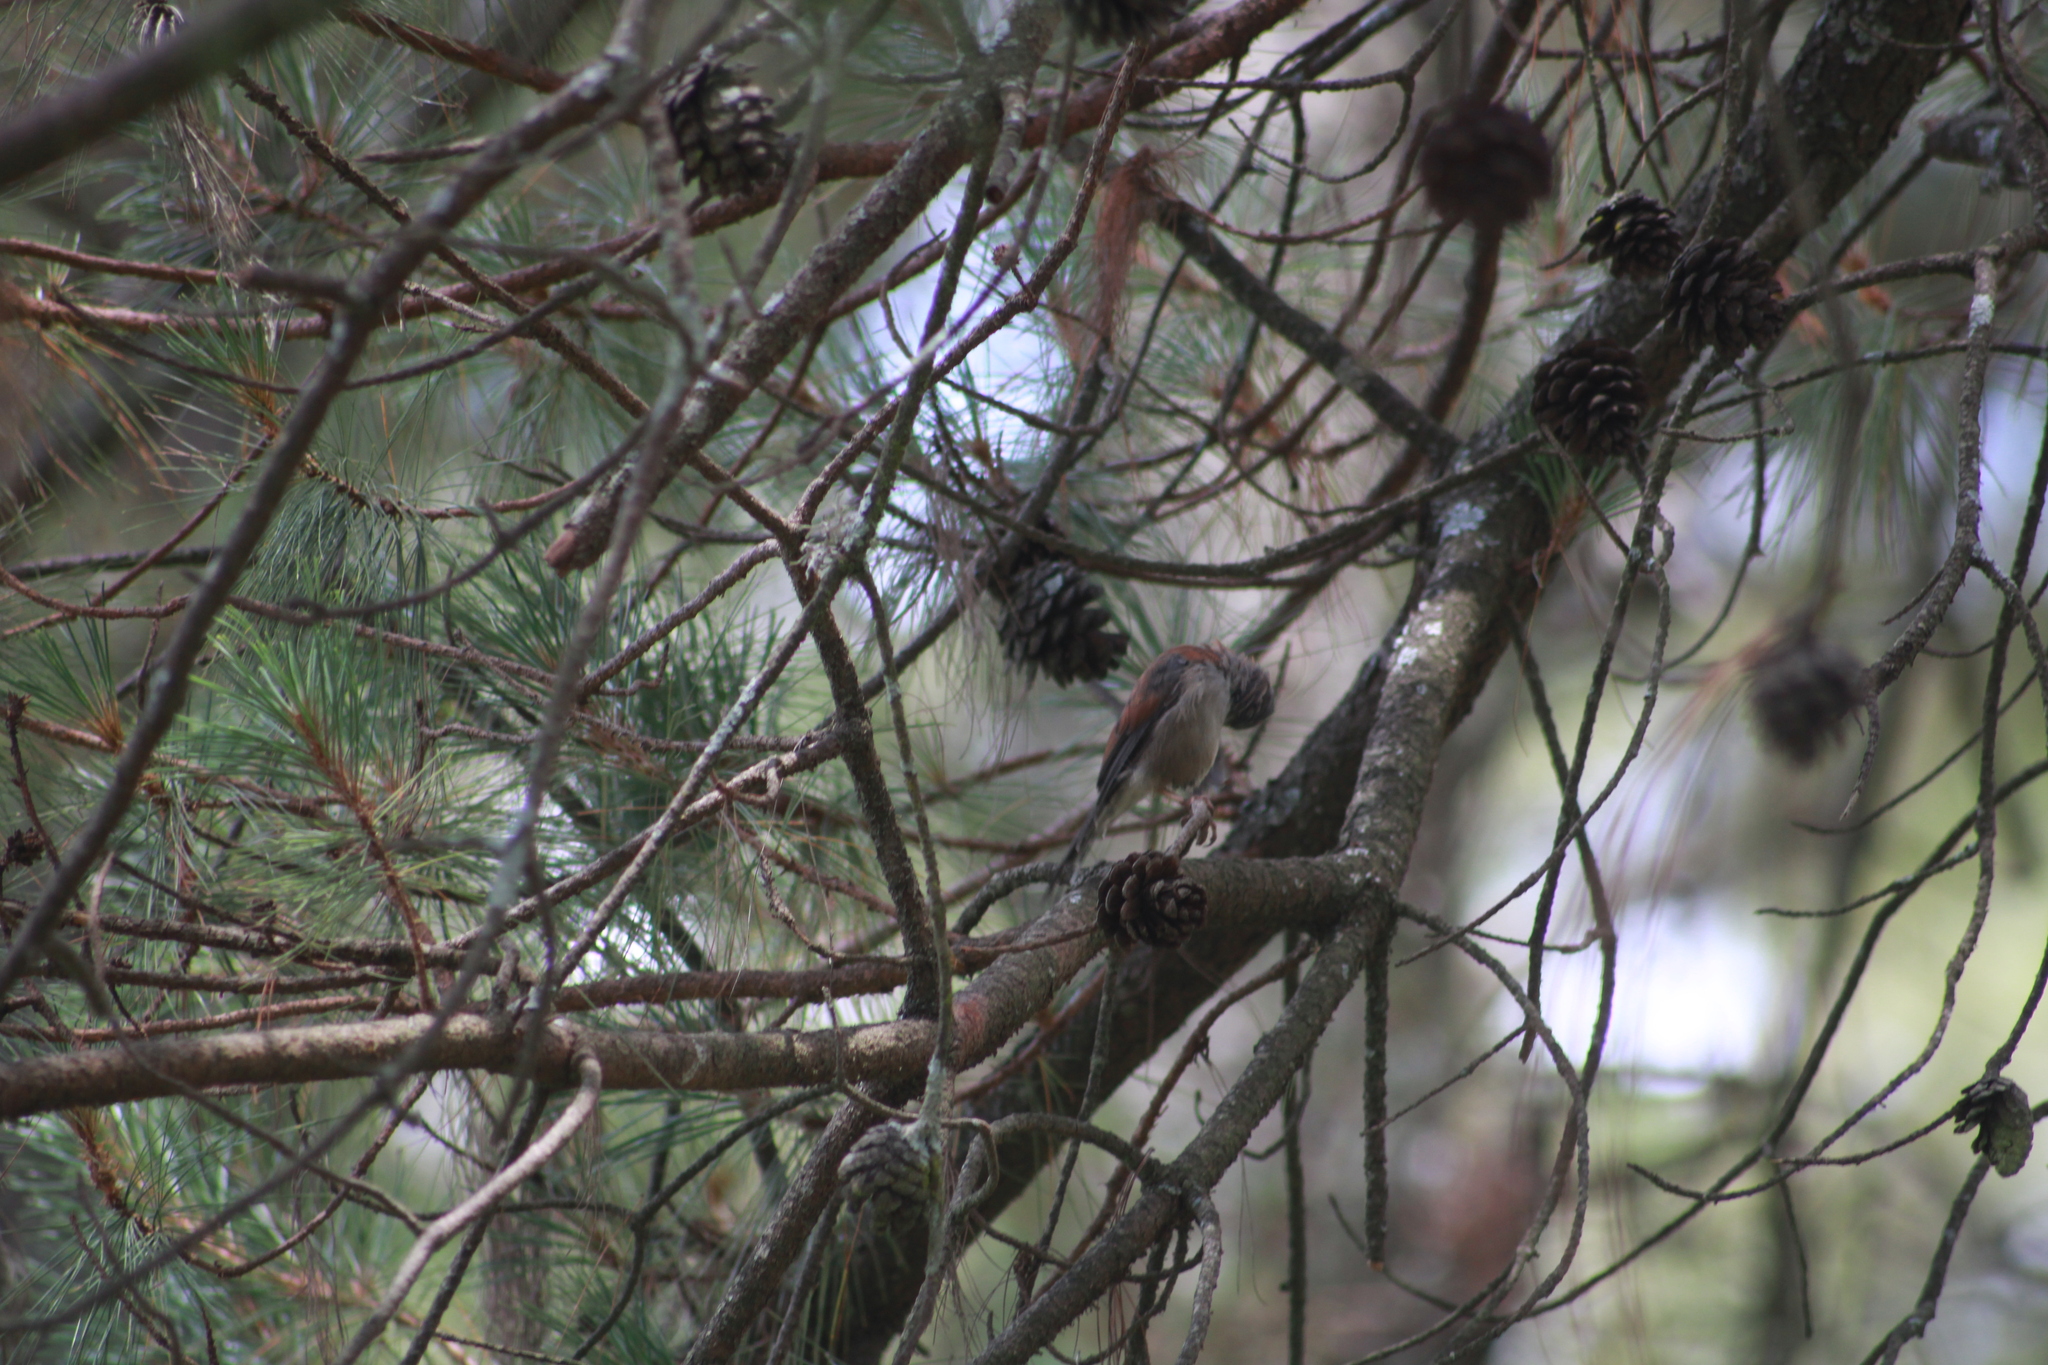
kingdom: Animalia
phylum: Chordata
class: Aves
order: Passeriformes
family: Passerellidae
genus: Junco
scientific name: Junco phaeonotus
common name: Yellow-eyed junco
